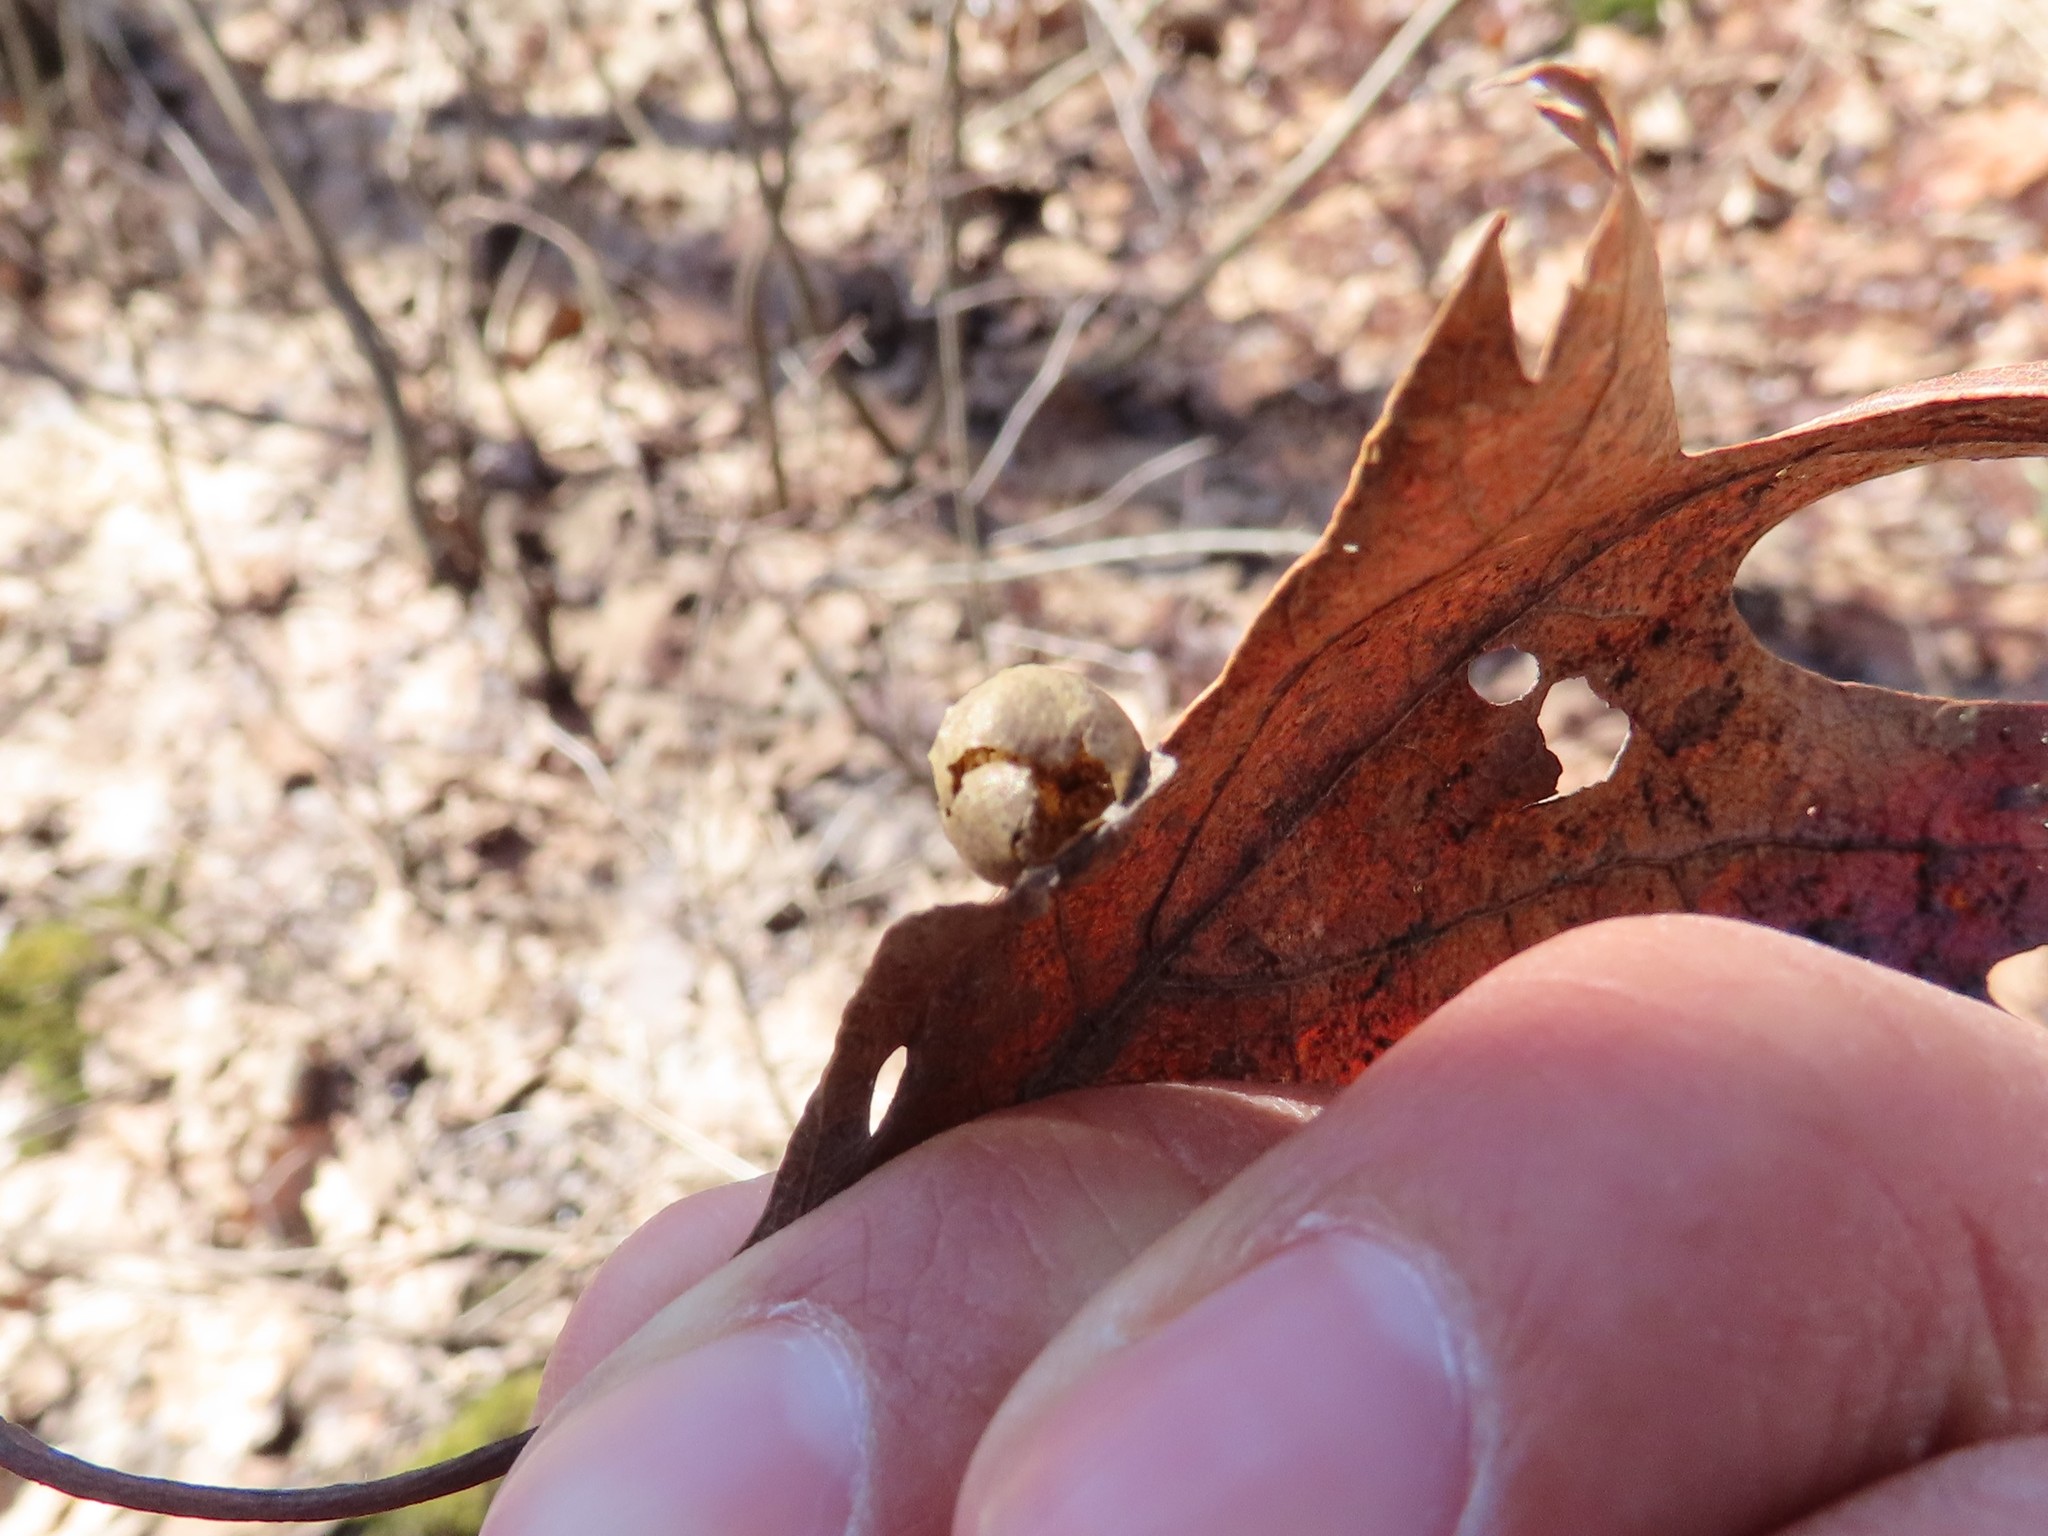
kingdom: Animalia
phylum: Arthropoda
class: Insecta
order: Hymenoptera
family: Cynipidae
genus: Amphibolips
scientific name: Amphibolips
